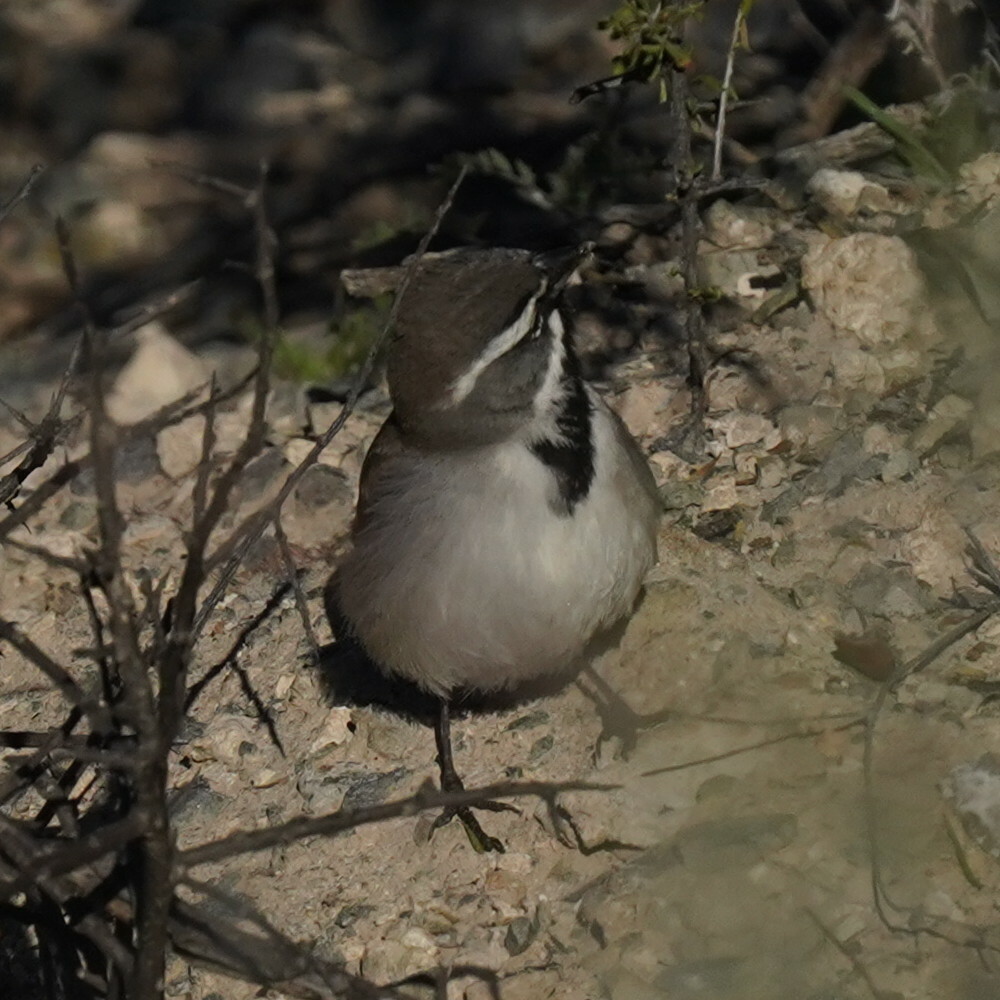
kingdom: Animalia
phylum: Chordata
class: Aves
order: Passeriformes
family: Passerellidae
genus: Amphispiza
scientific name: Amphispiza bilineata
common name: Black-throated sparrow
